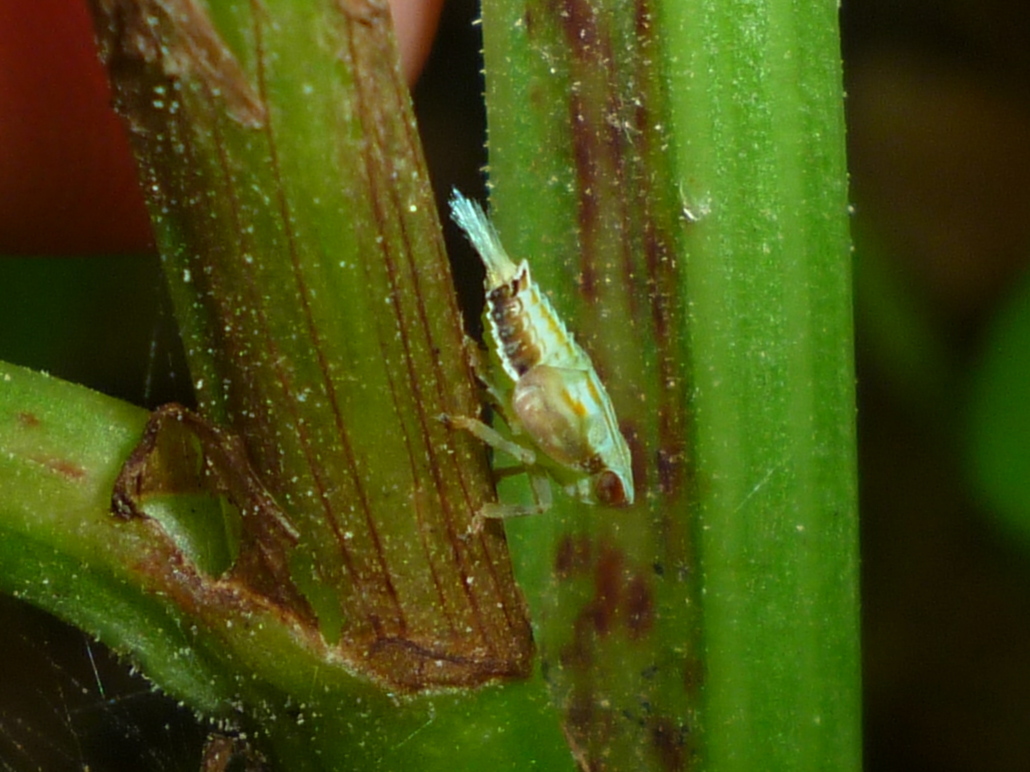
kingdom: Animalia
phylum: Arthropoda
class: Insecta
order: Hemiptera
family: Issidae
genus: Thionia
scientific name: Thionia bullata
